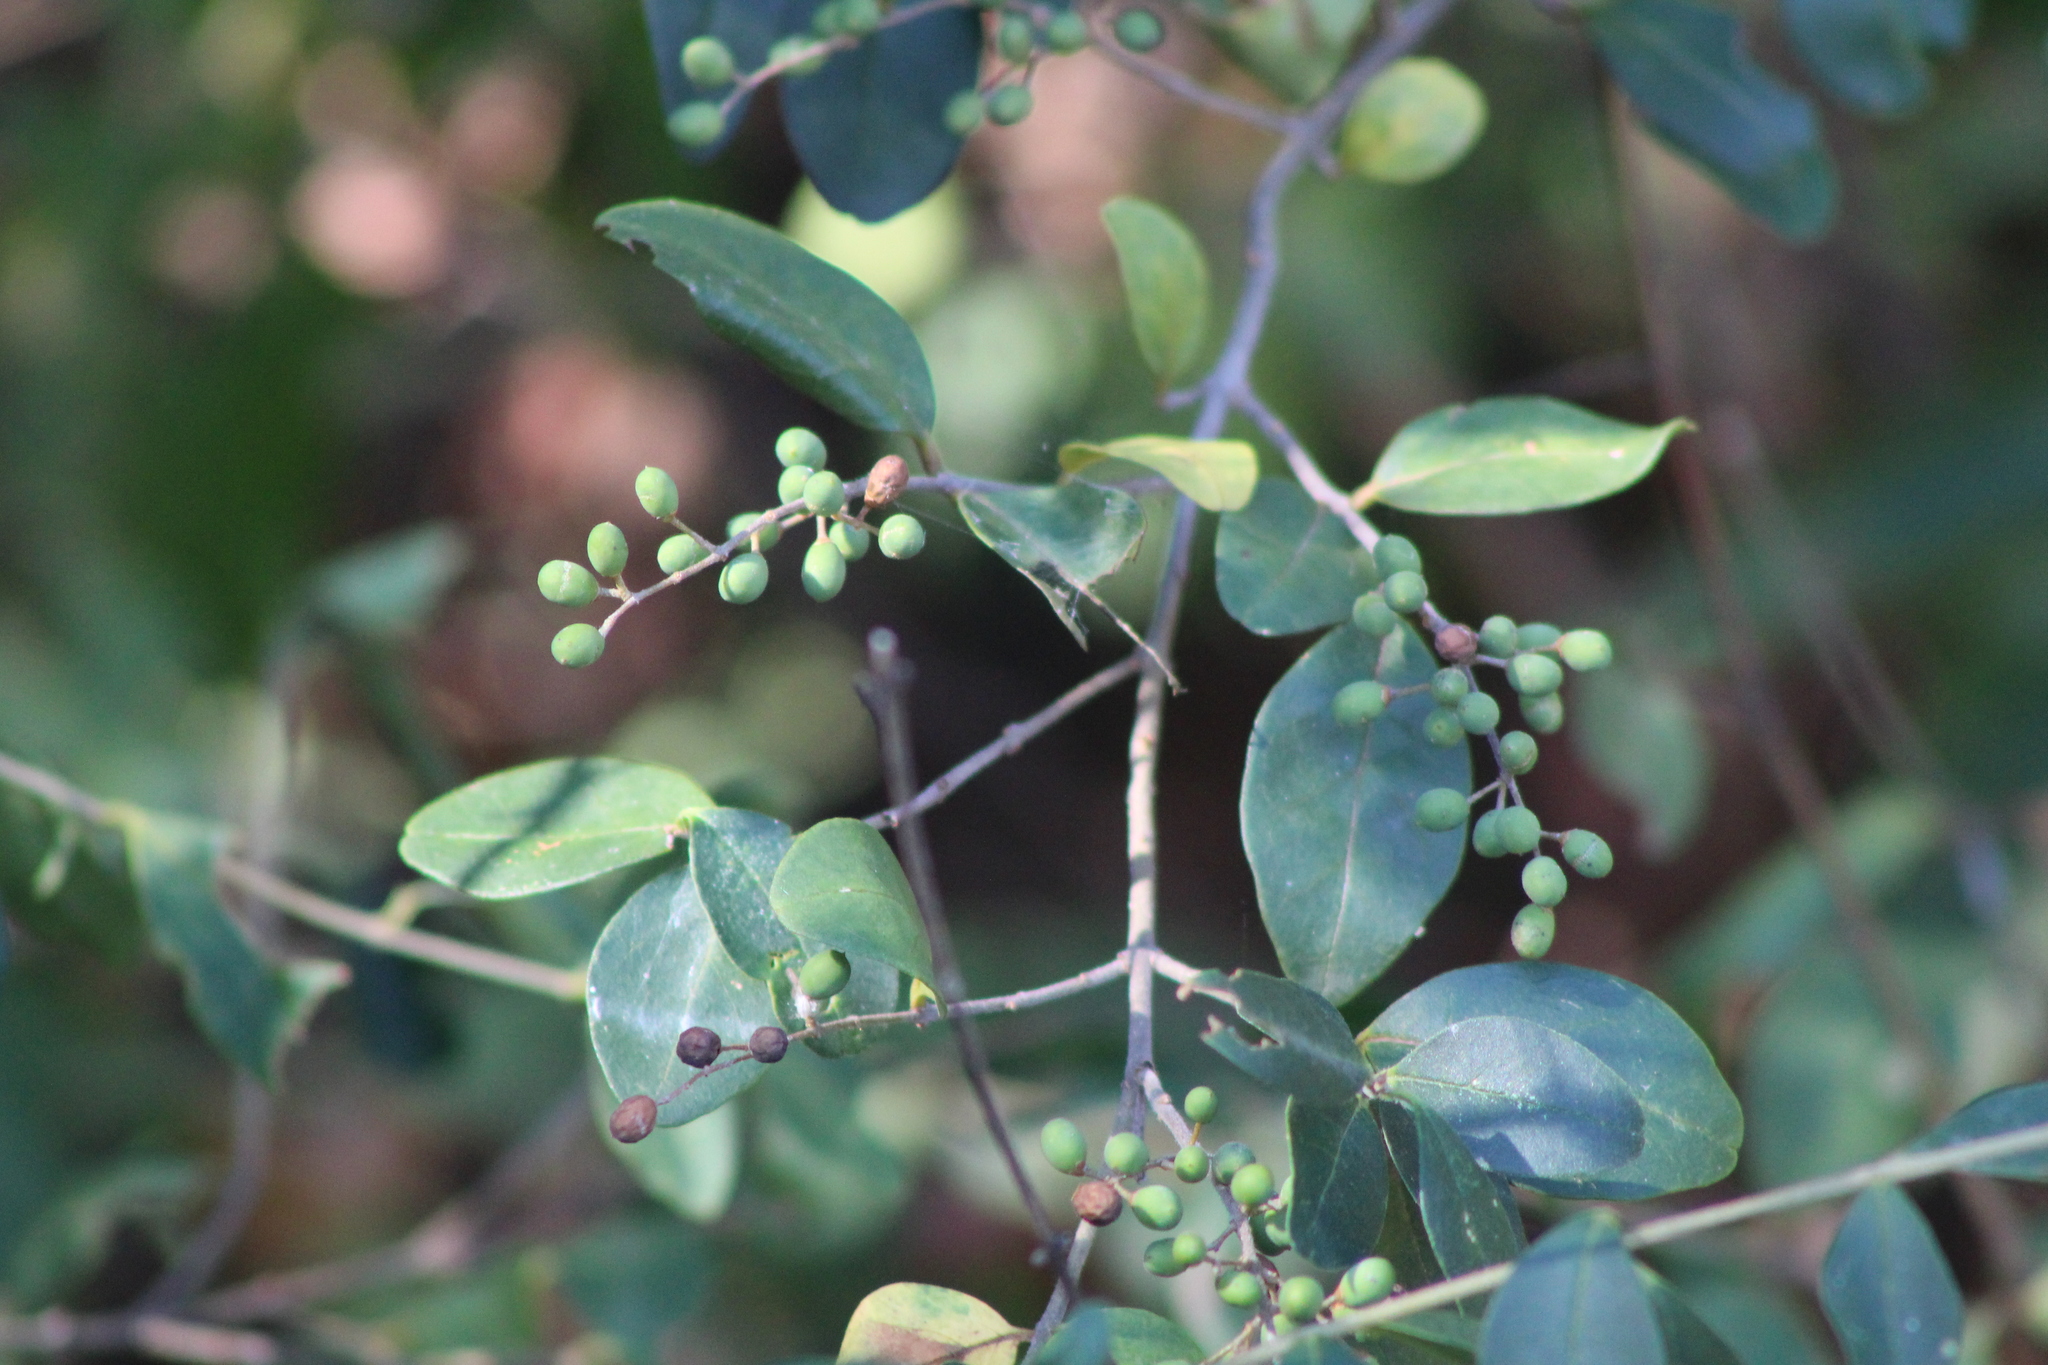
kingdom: Plantae
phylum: Tracheophyta
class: Magnoliopsida
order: Lamiales
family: Oleaceae
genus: Ligustrum
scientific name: Ligustrum sinense
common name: Chinese privet
